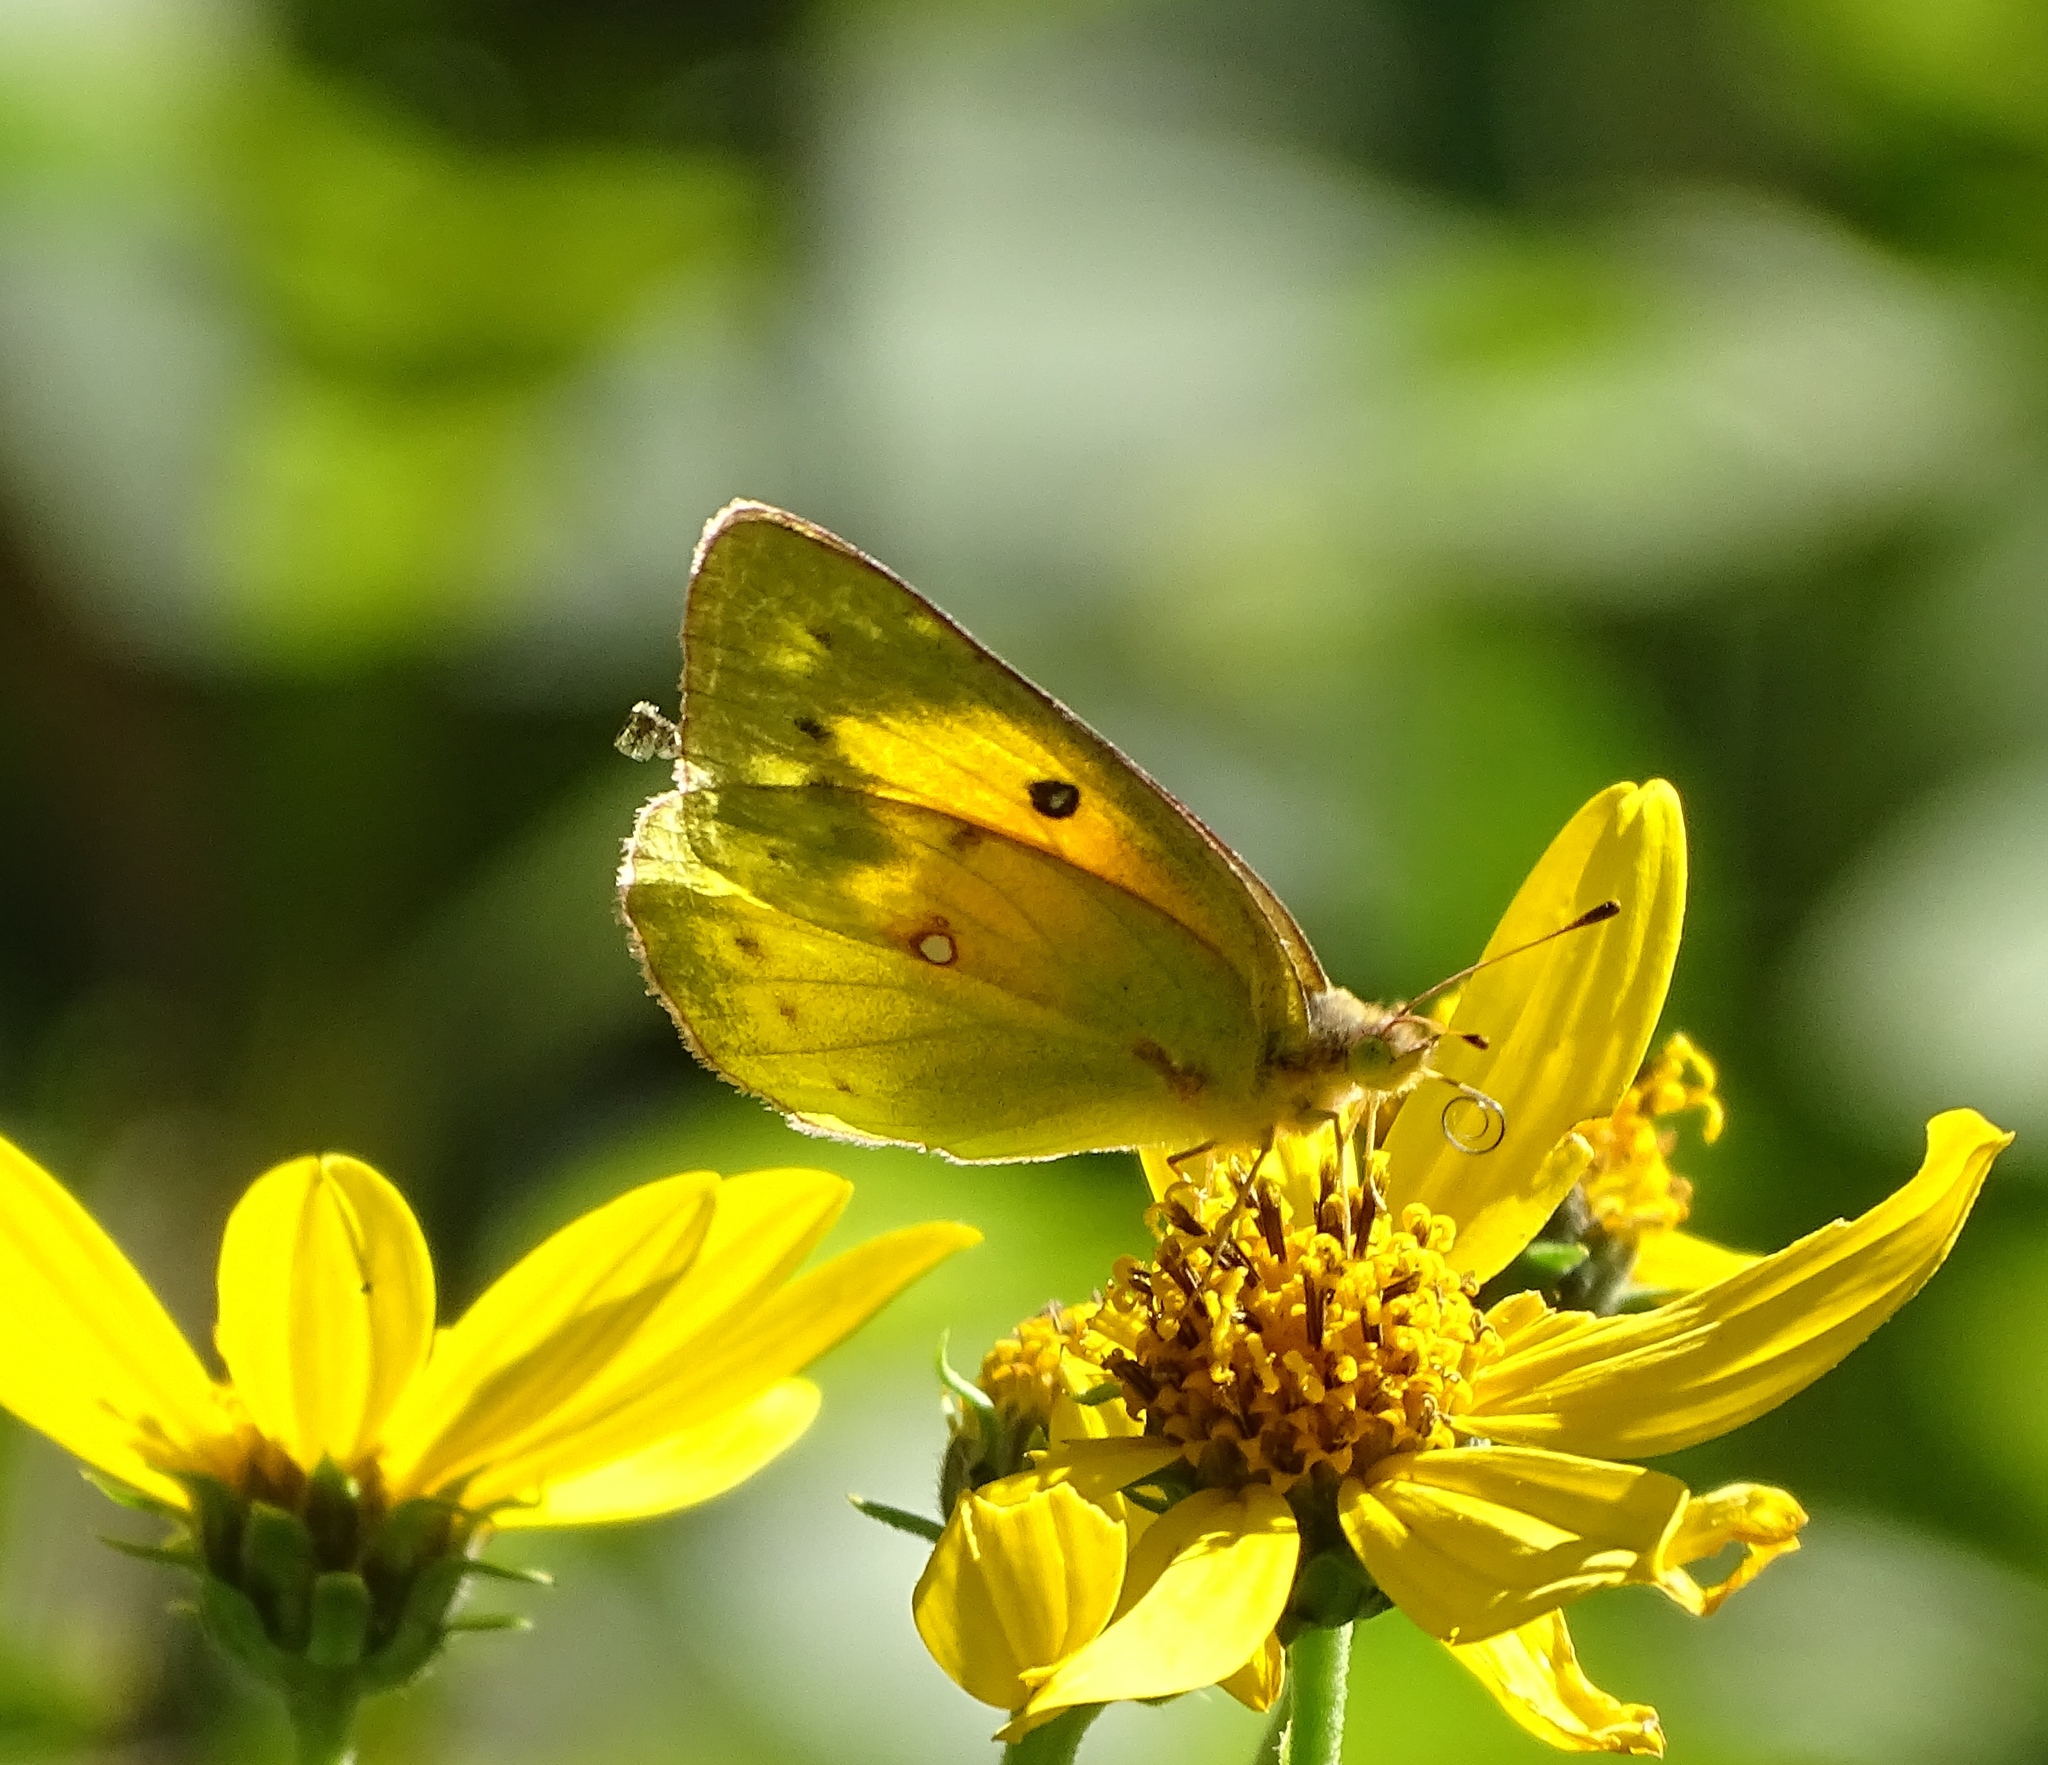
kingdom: Animalia
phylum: Arthropoda
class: Insecta
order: Lepidoptera
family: Pieridae
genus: Colias
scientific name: Colias eurytheme
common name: Alfalfa butterfly
